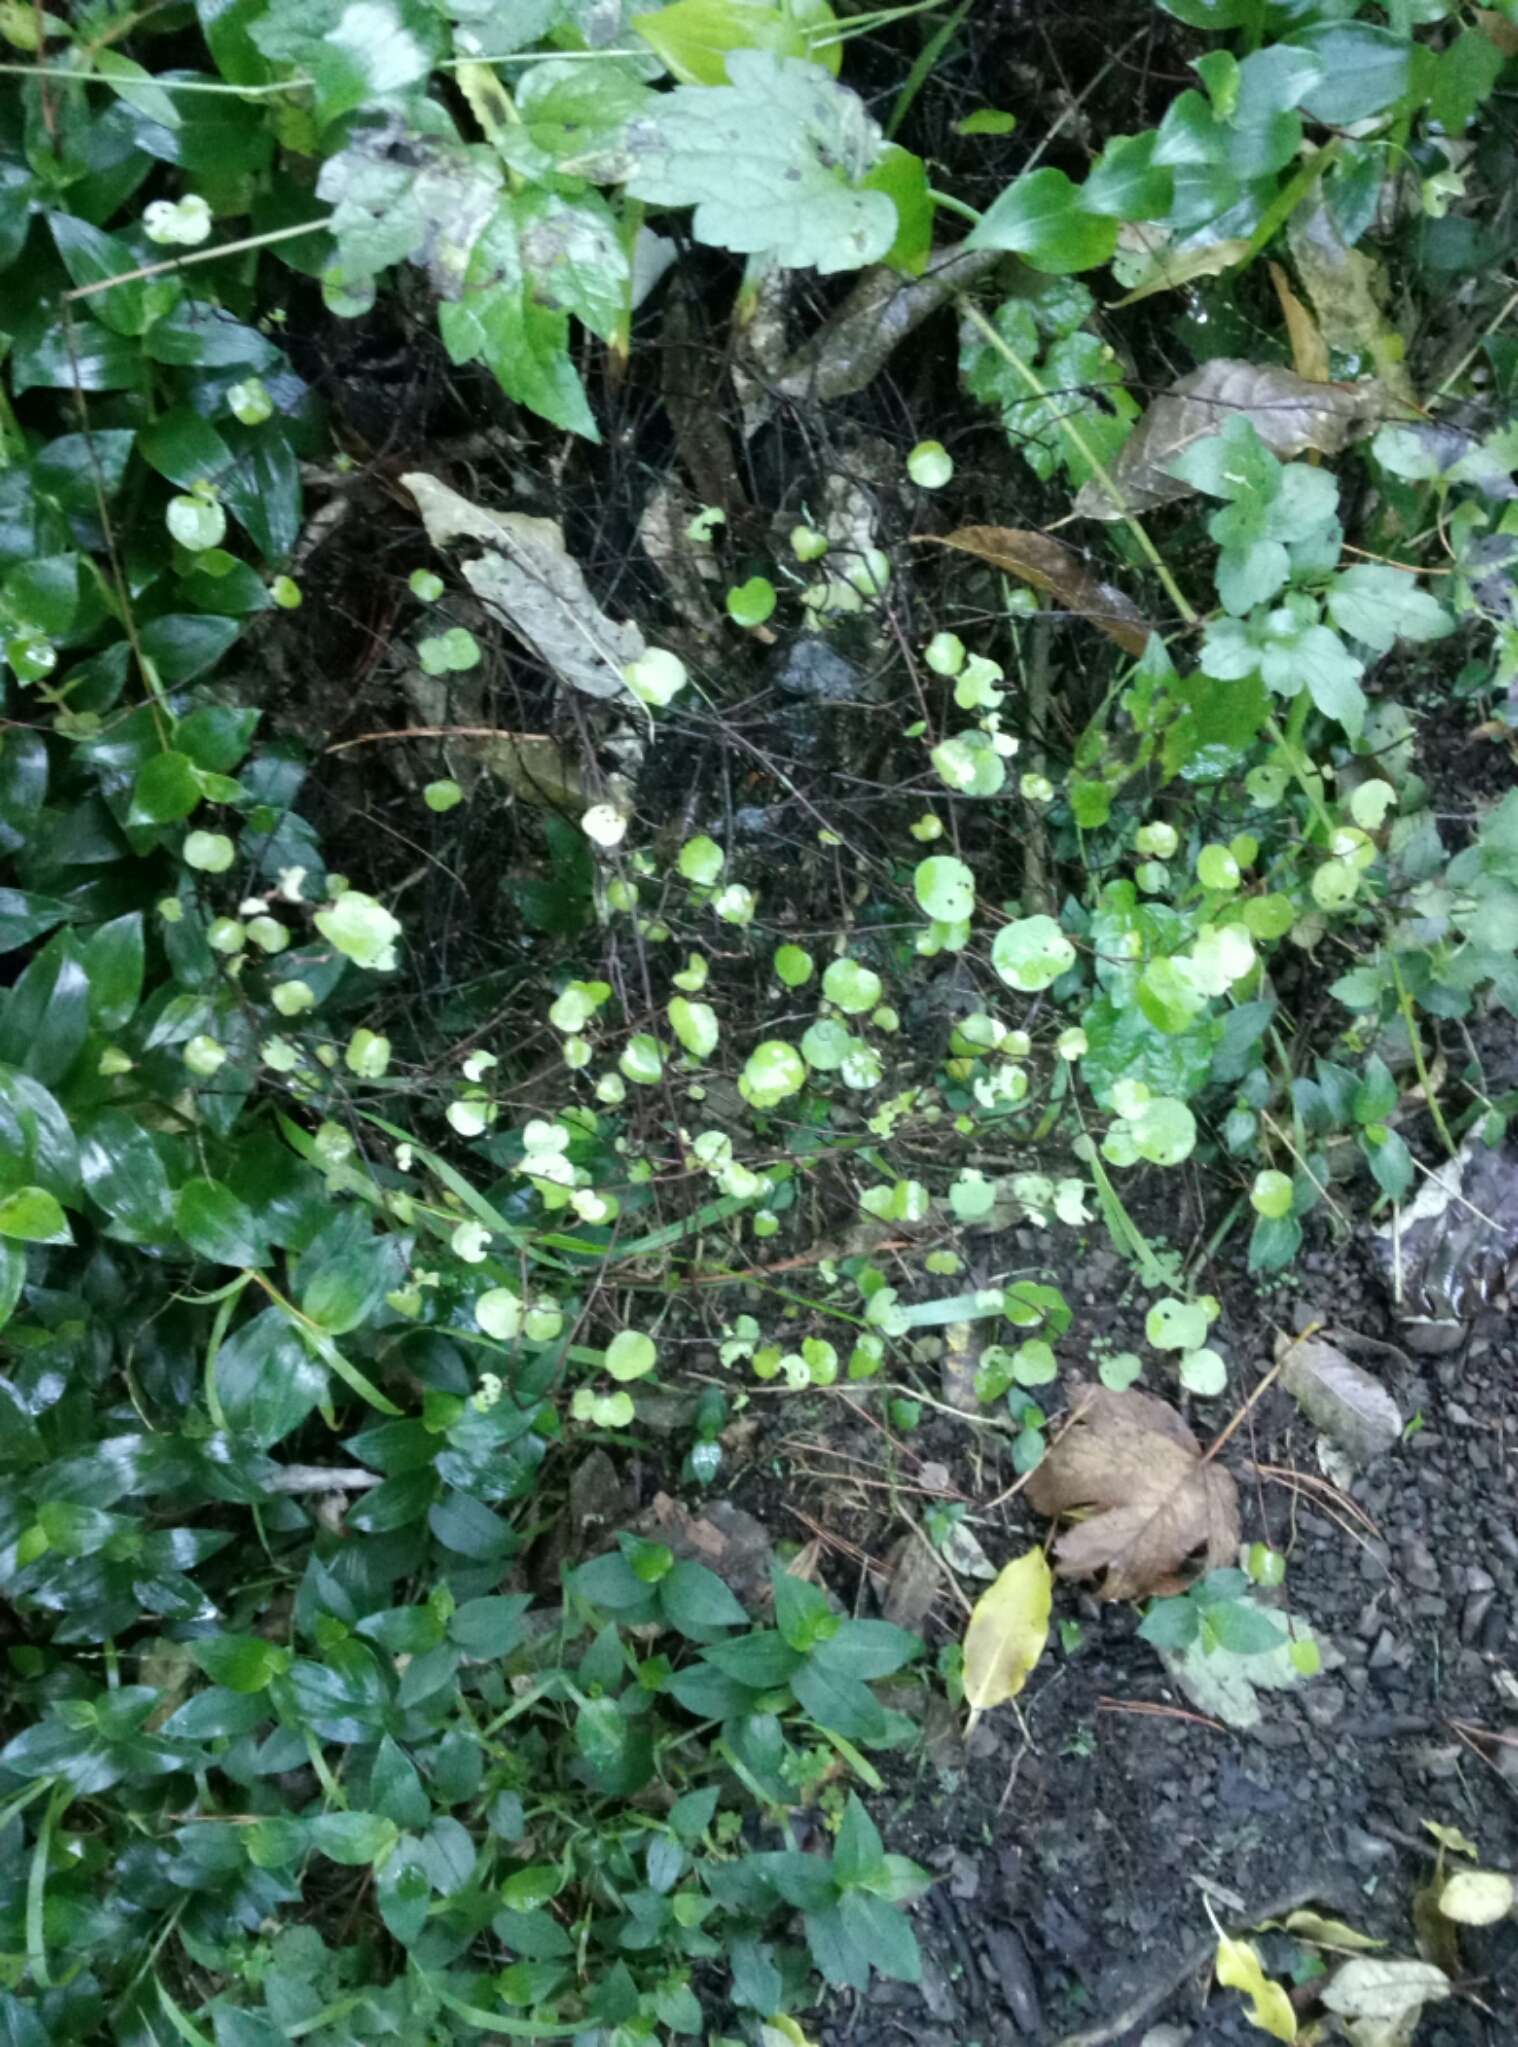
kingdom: Plantae
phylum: Tracheophyta
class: Magnoliopsida
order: Caryophyllales
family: Polygonaceae
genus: Muehlenbeckia
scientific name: Muehlenbeckia complexa
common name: Wireplant
